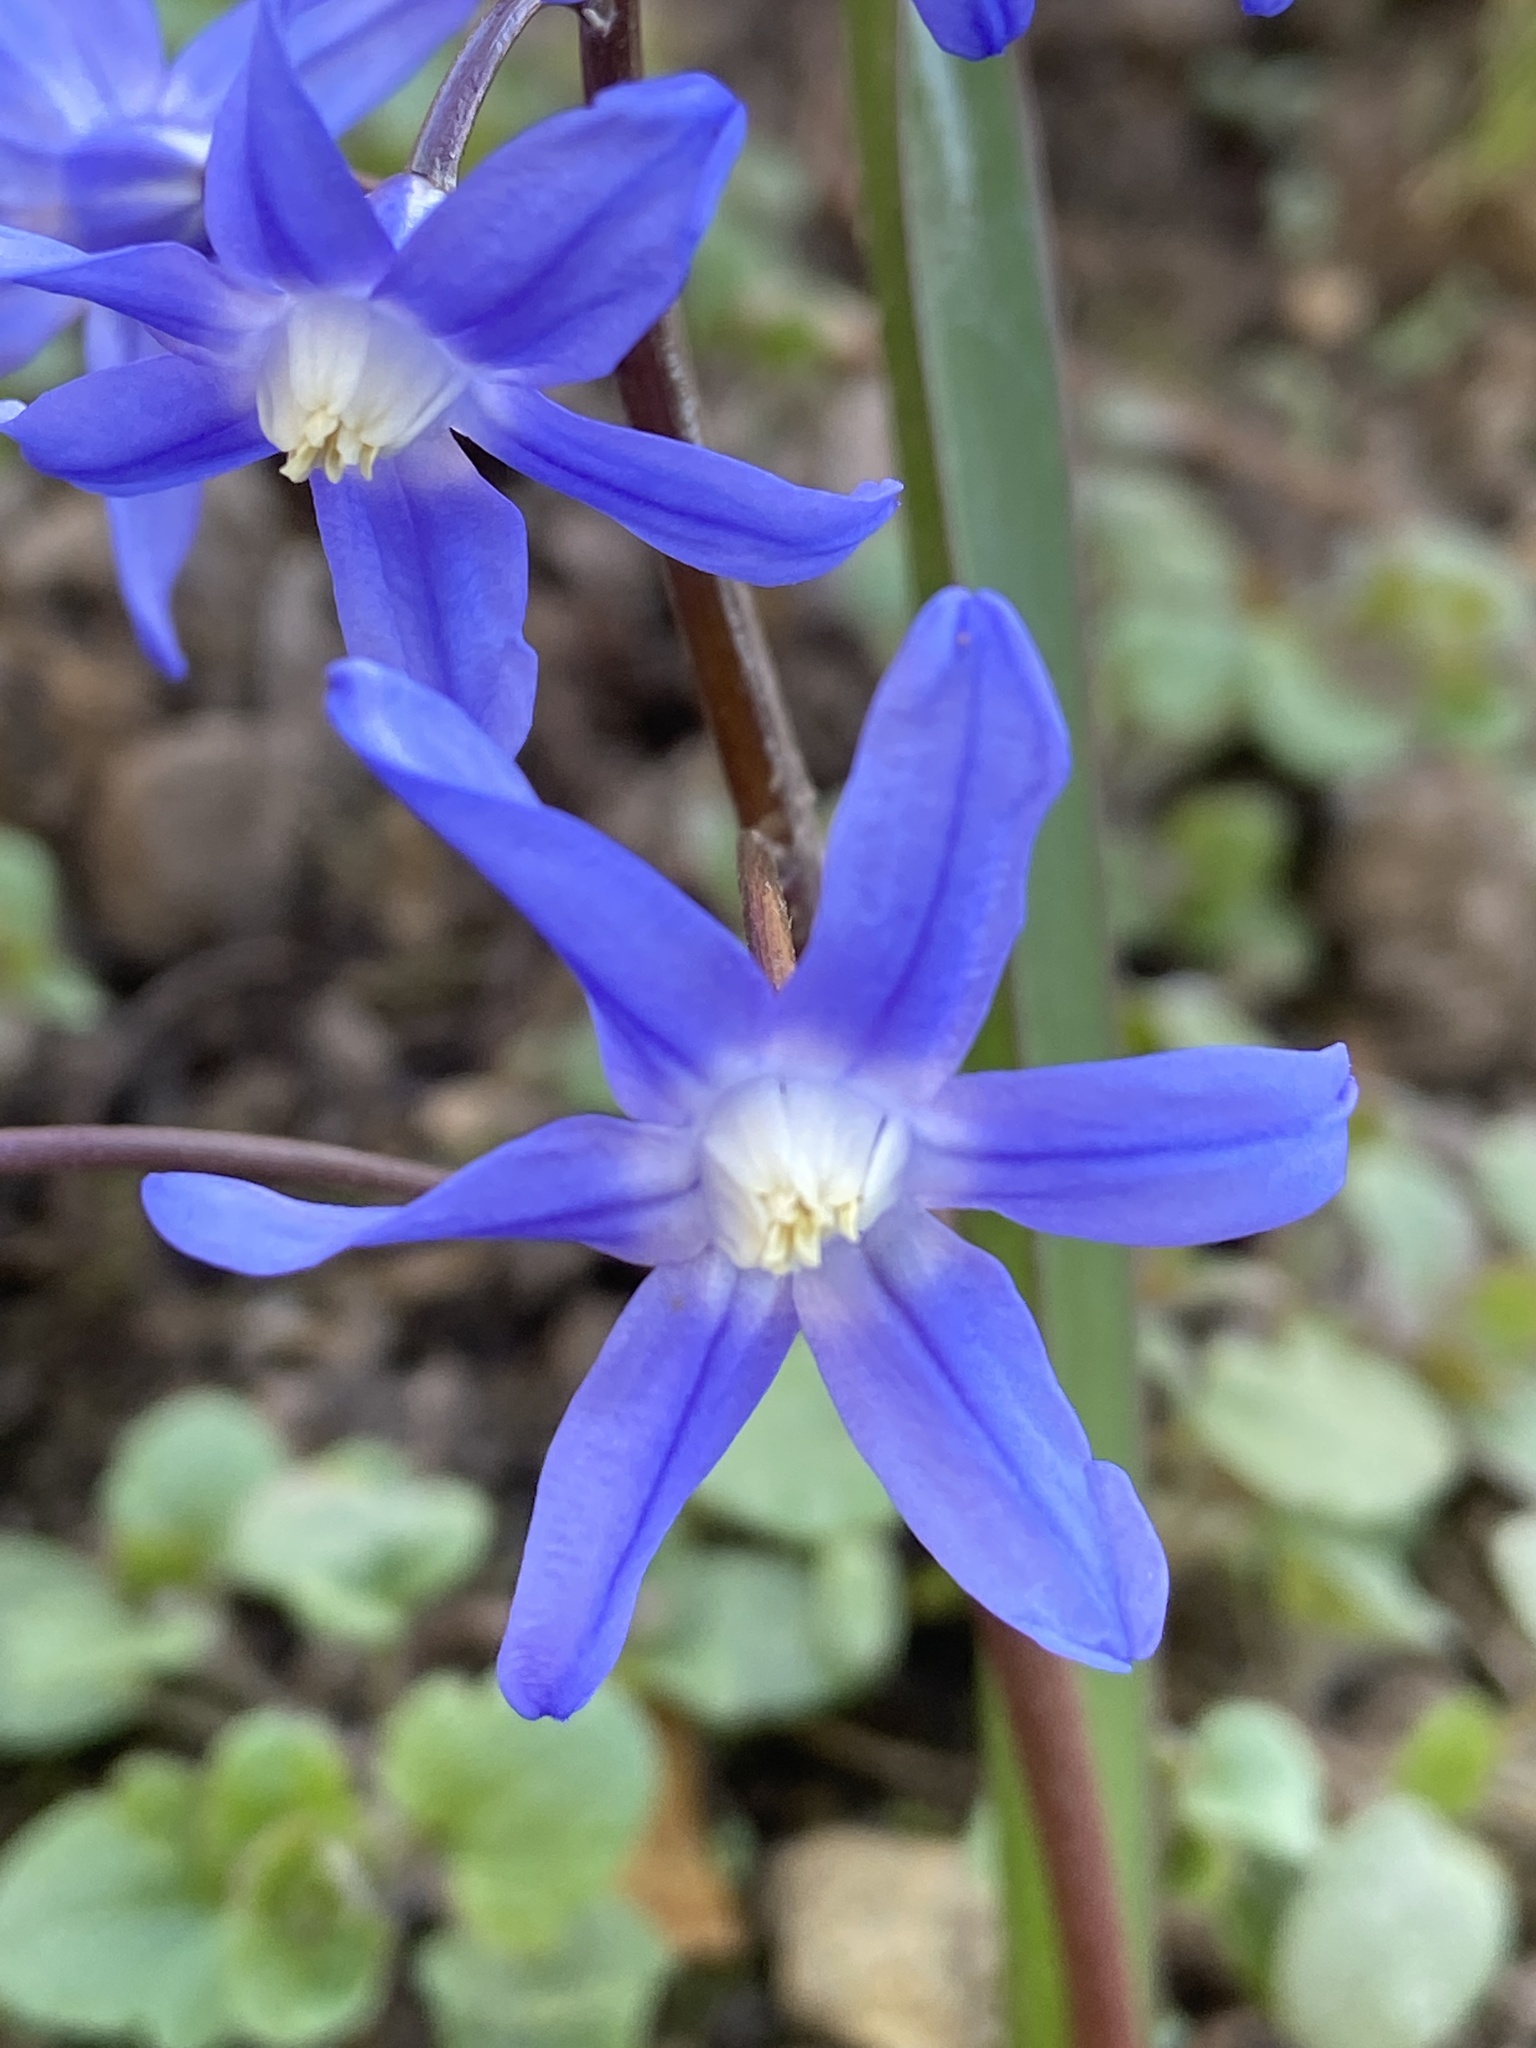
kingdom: Plantae
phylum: Tracheophyta
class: Liliopsida
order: Asparagales
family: Asparagaceae
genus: Scilla
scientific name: Scilla forbesii
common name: Glory-of-the-snow
